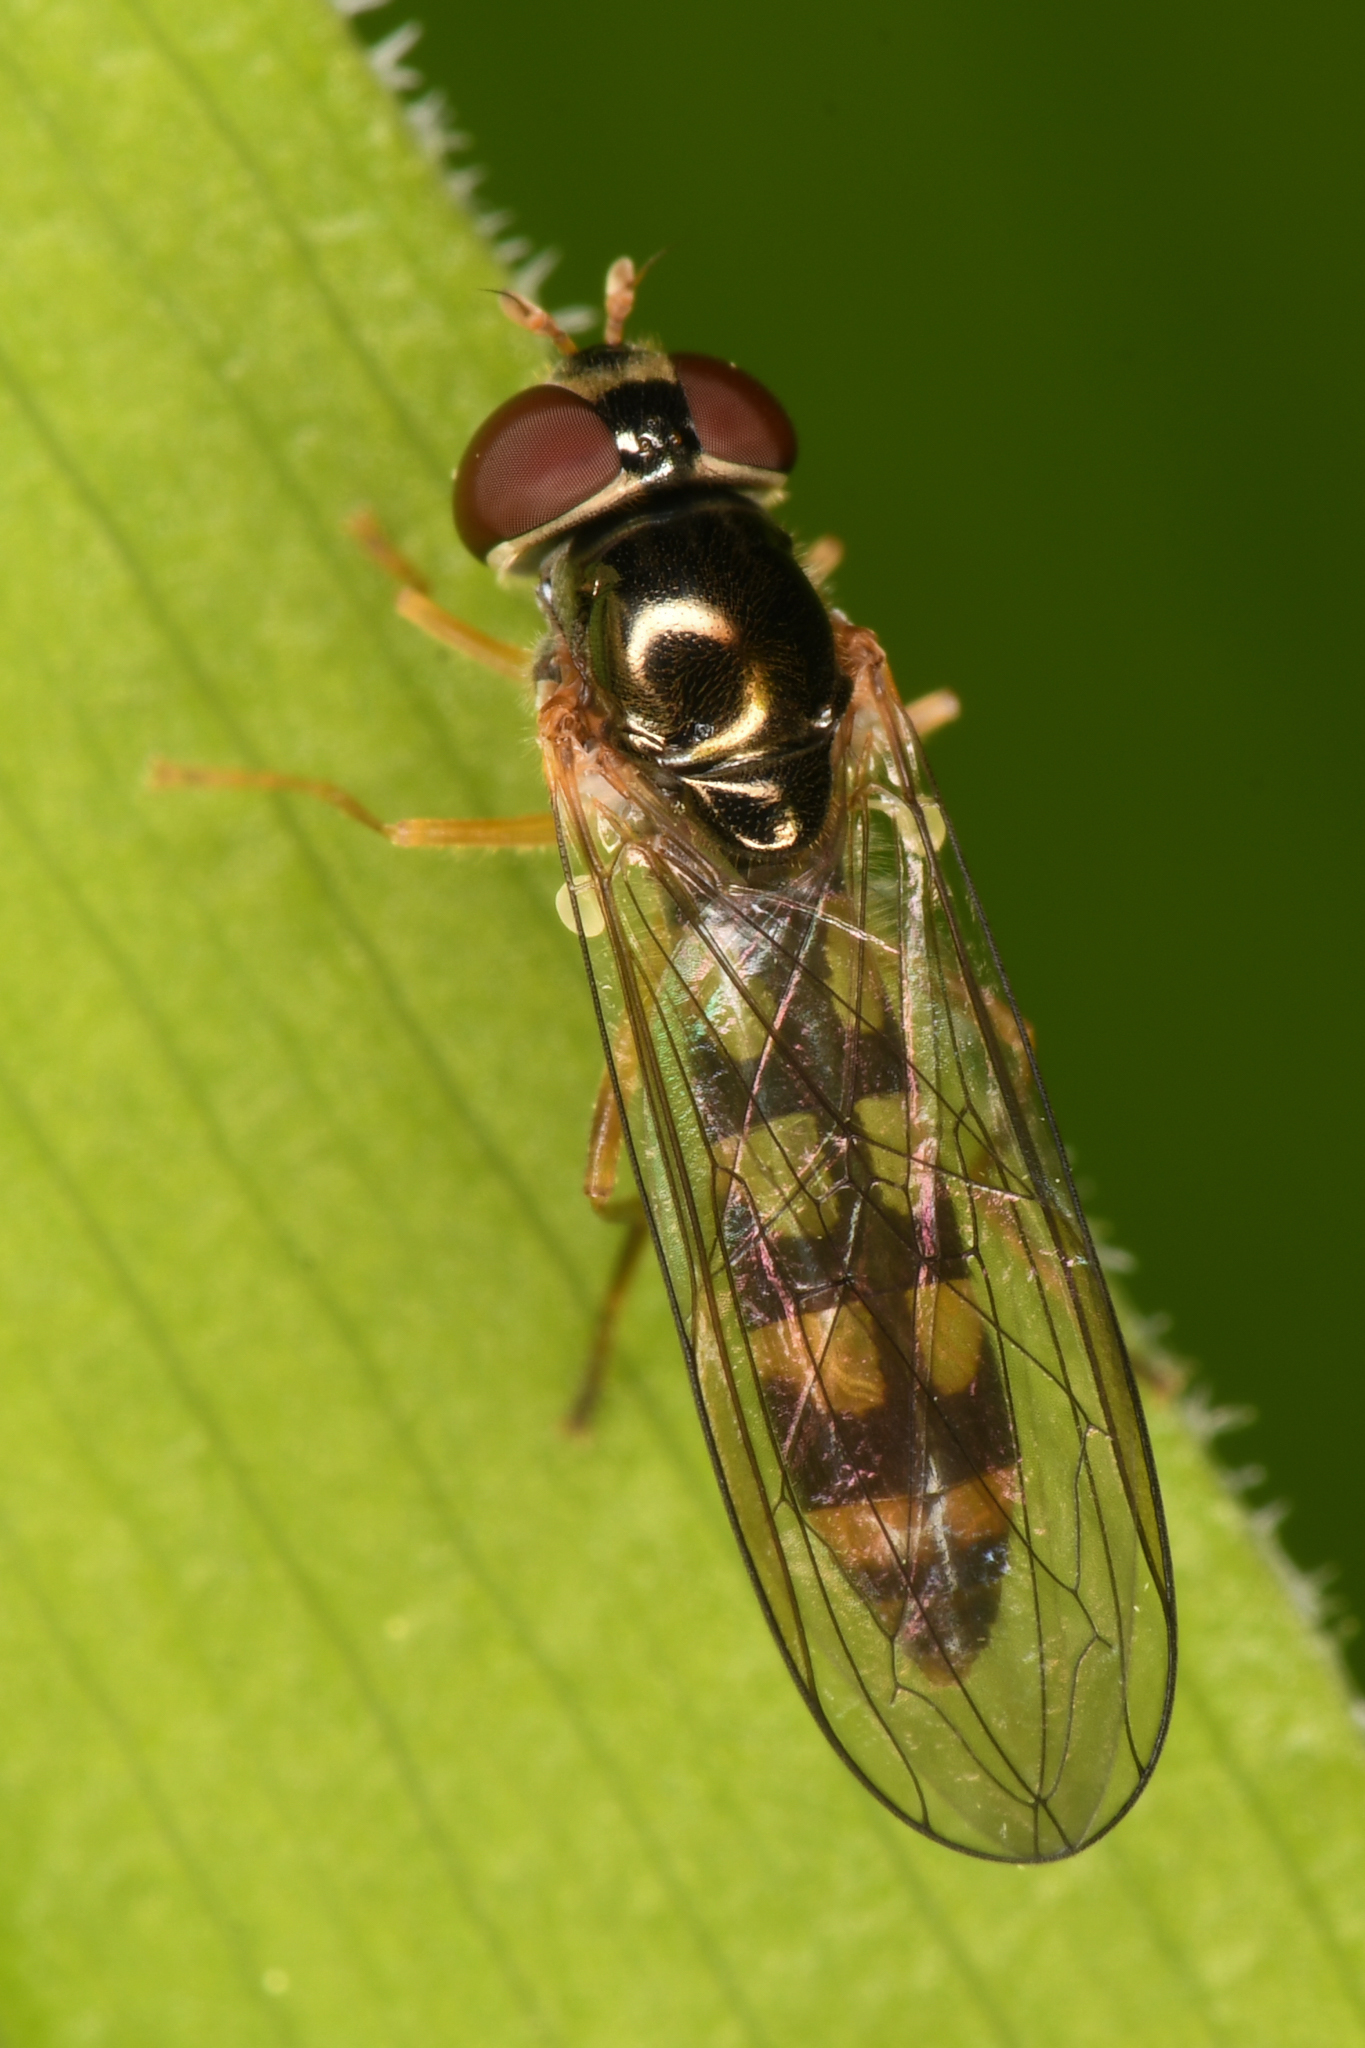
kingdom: Animalia
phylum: Arthropoda
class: Insecta
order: Diptera
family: Syrphidae
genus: Melanostoma
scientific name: Melanostoma mellina
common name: Hover fly
